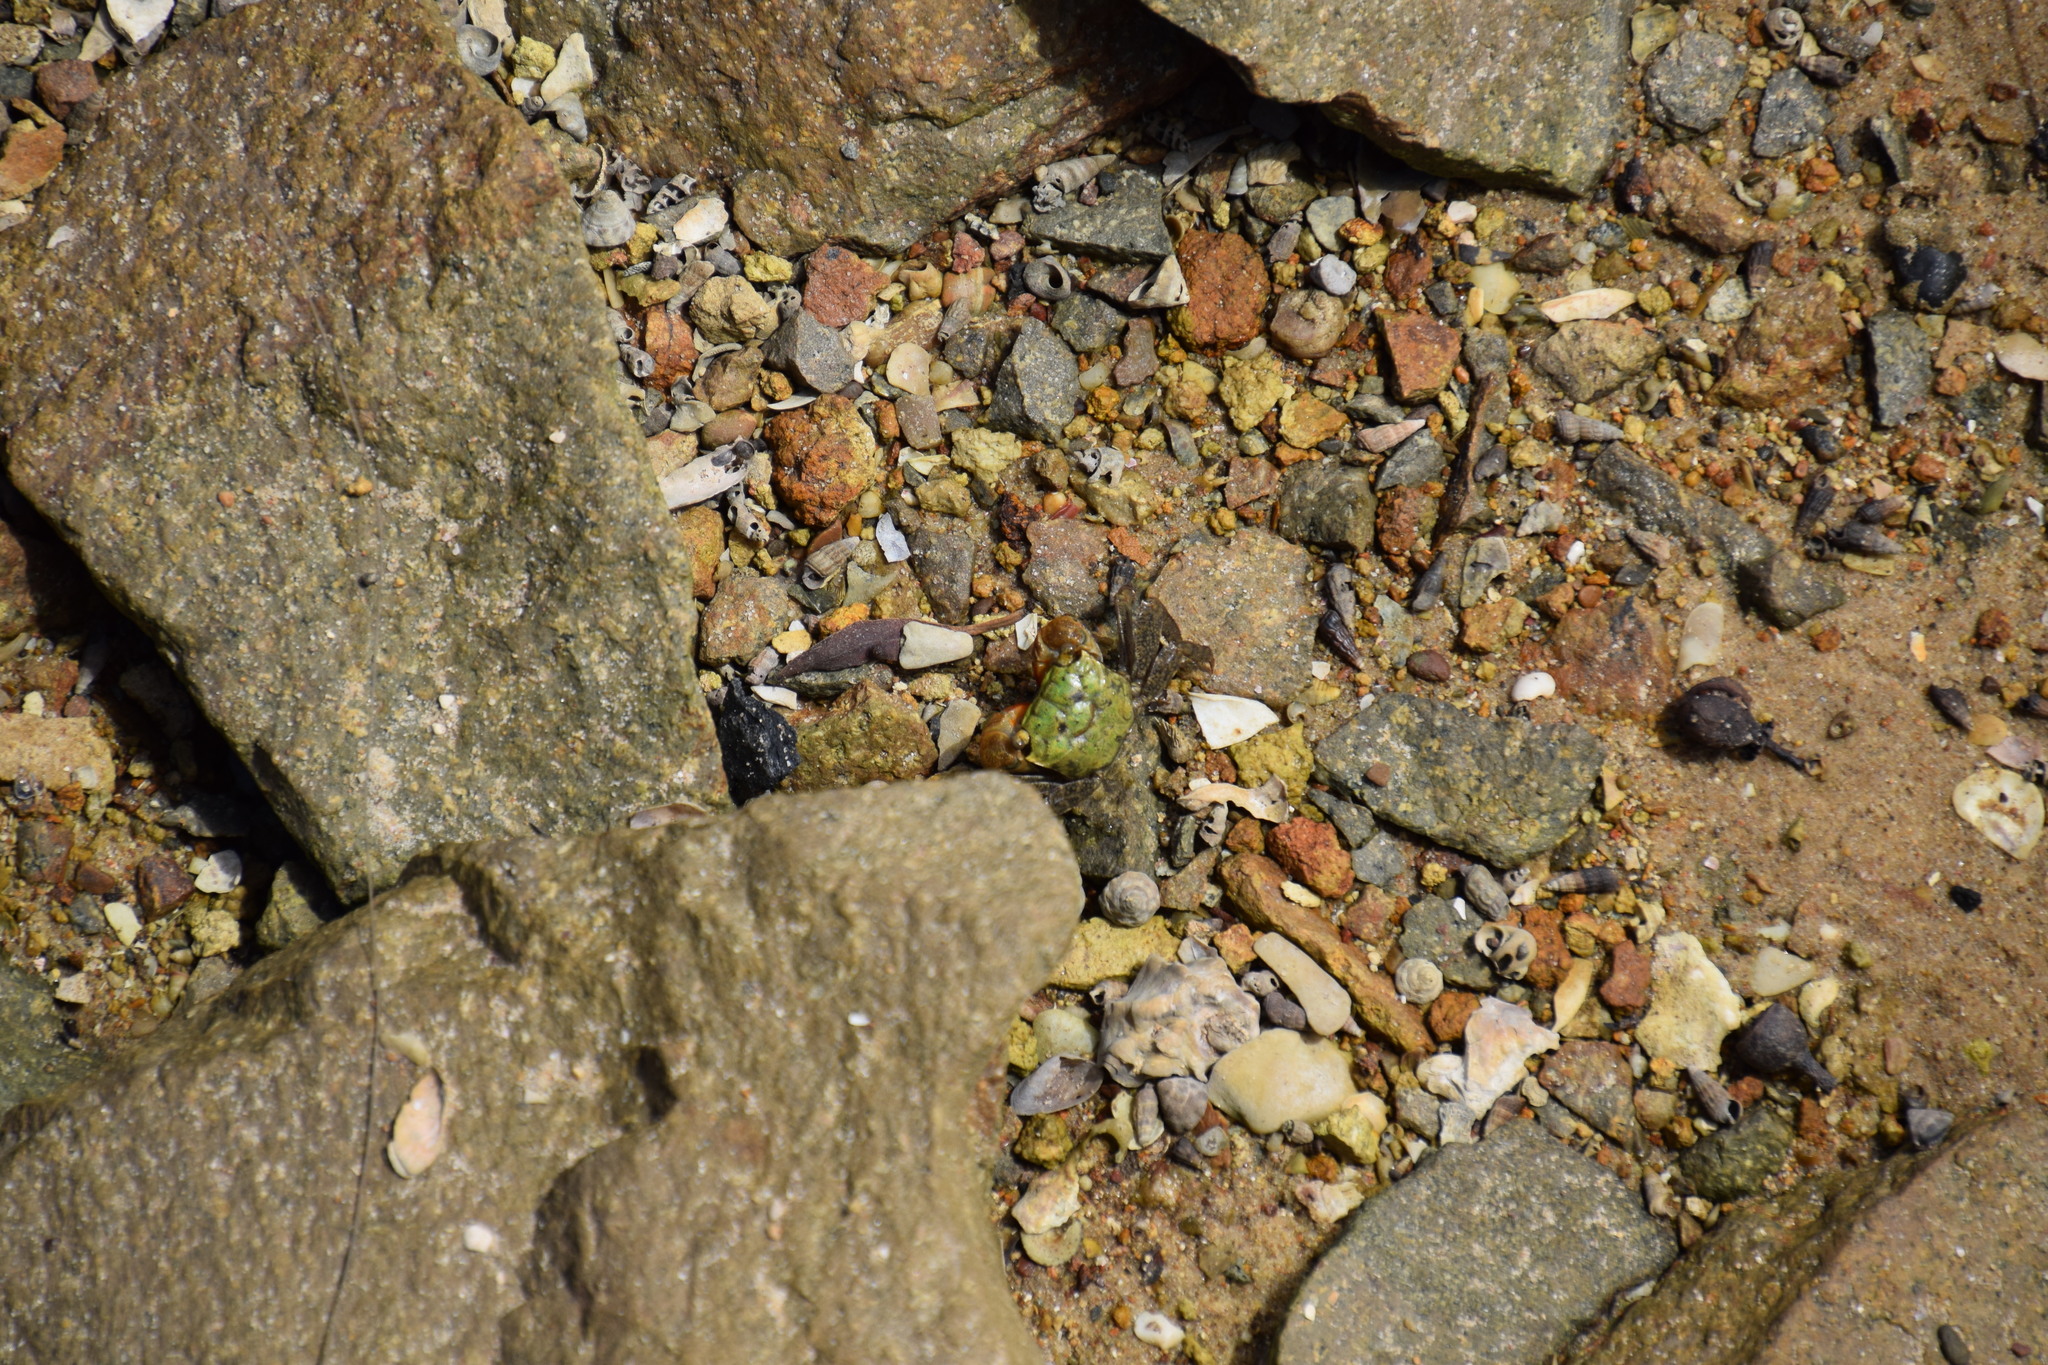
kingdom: Animalia
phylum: Arthropoda
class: Malacostraca
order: Decapoda
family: Sesarmidae
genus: Parasesarma
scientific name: Parasesarma erythodactylum
